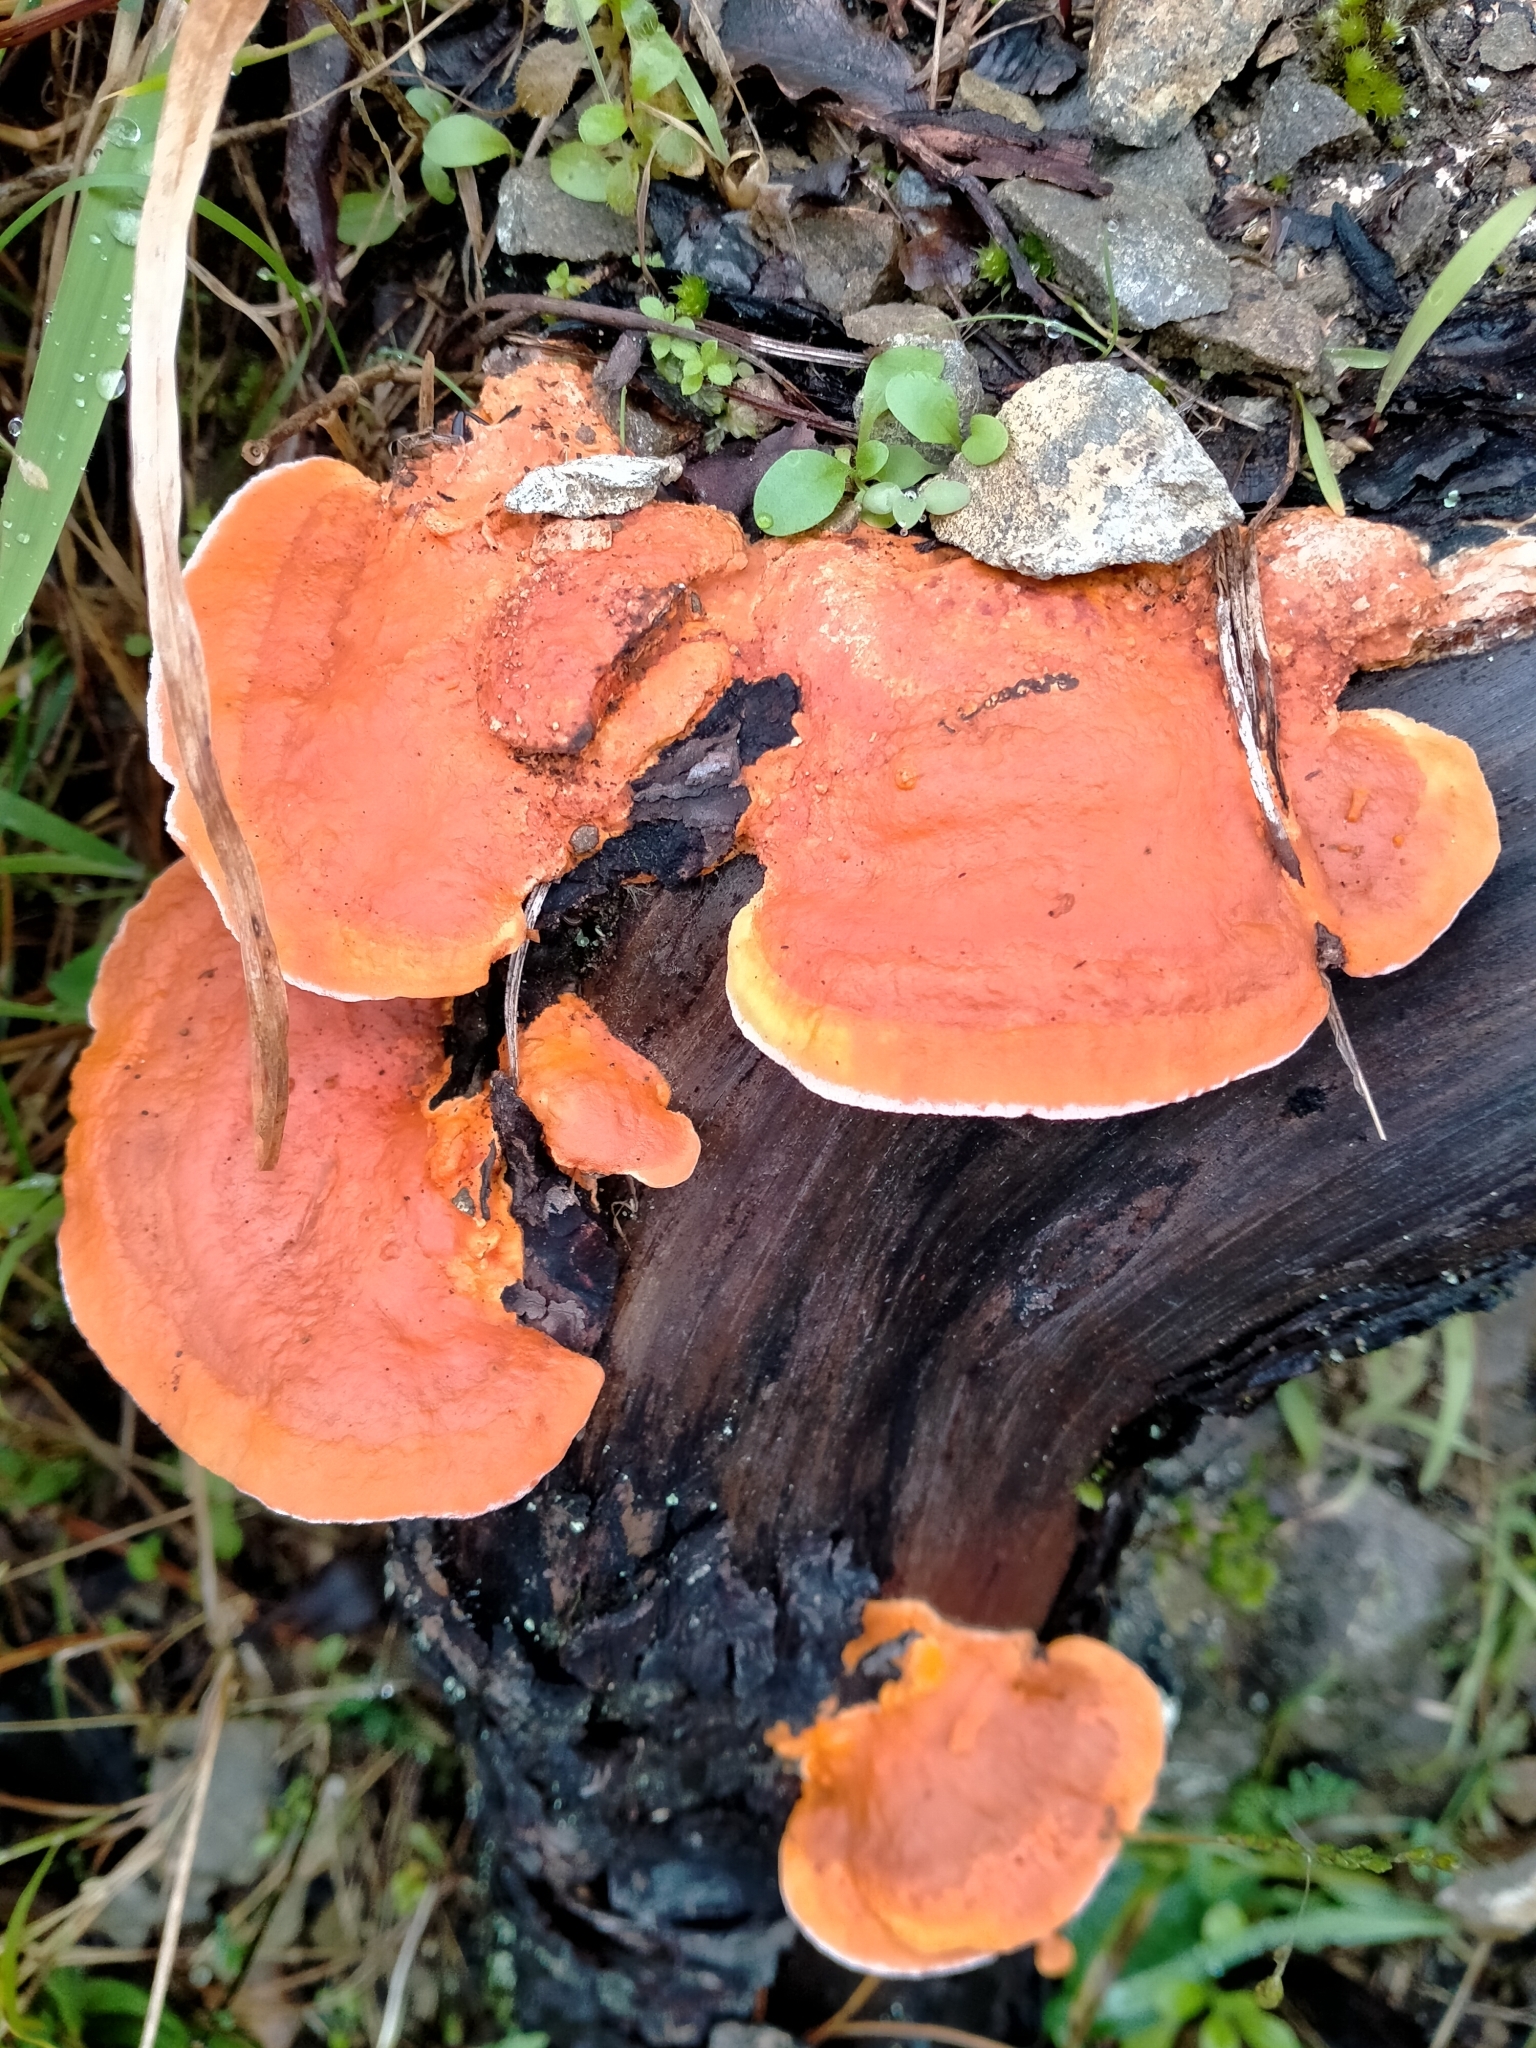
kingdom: Fungi
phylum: Basidiomycota
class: Agaricomycetes
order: Polyporales
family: Polyporaceae
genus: Trametes
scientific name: Trametes coccinea
